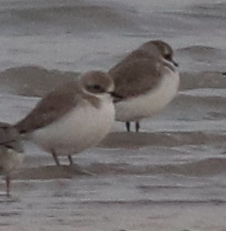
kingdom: Animalia
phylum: Chordata
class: Aves
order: Charadriiformes
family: Charadriidae
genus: Anarhynchus
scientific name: Anarhynchus
